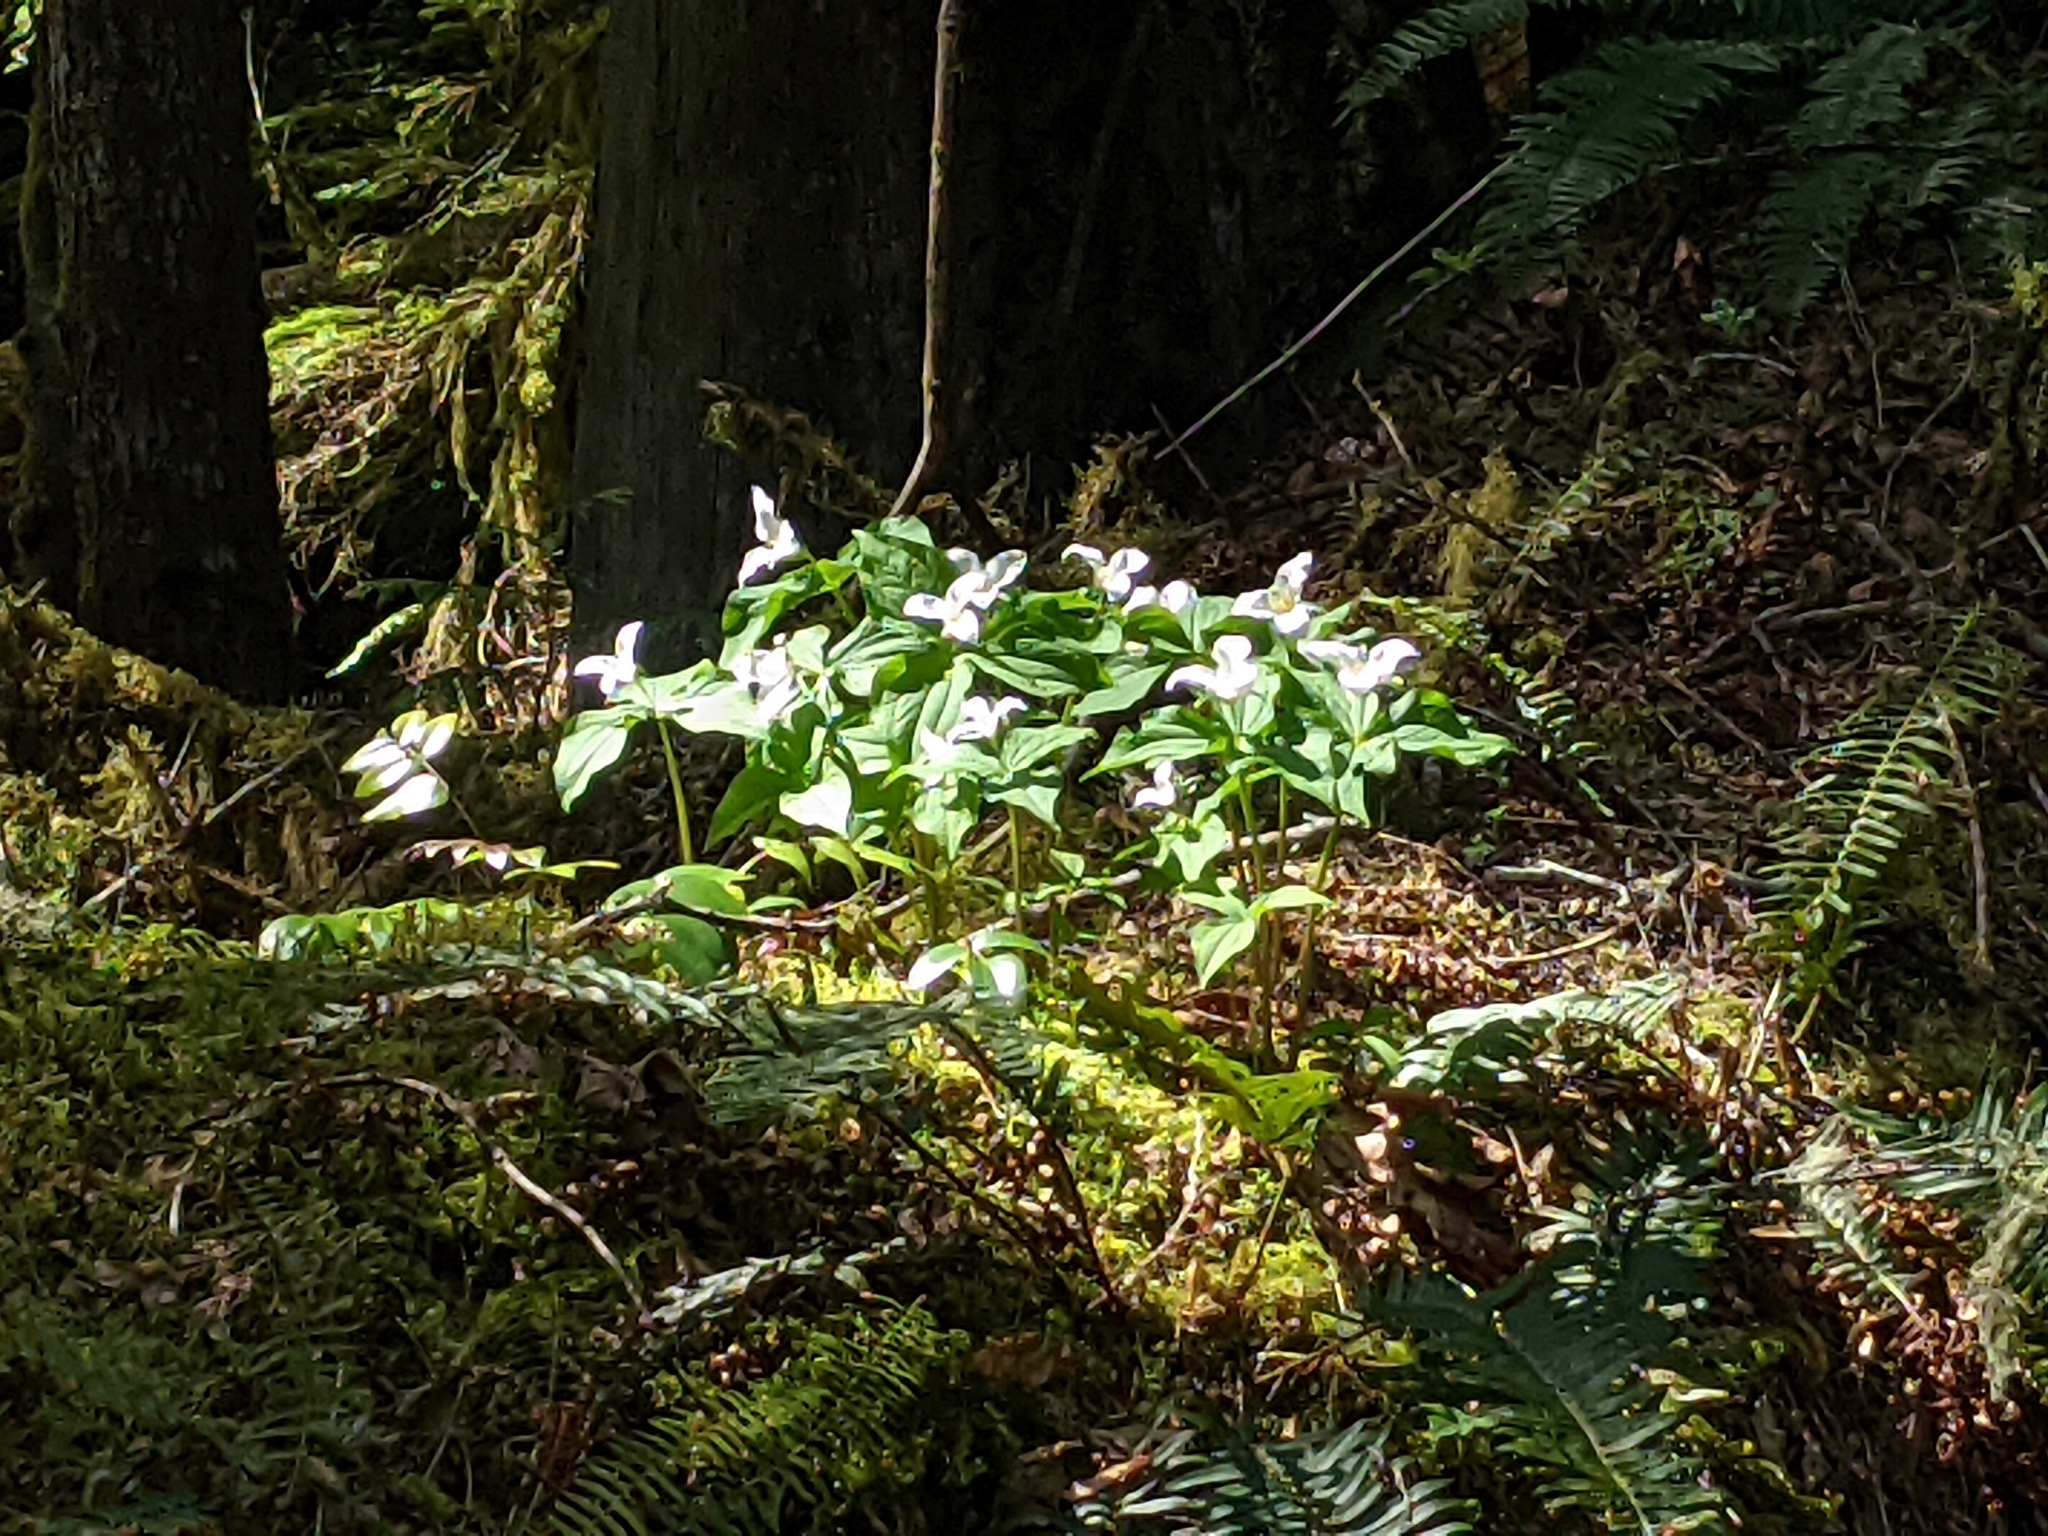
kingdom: Plantae
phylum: Tracheophyta
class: Liliopsida
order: Liliales
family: Melanthiaceae
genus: Trillium
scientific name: Trillium ovatum
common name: Pacific trillium
